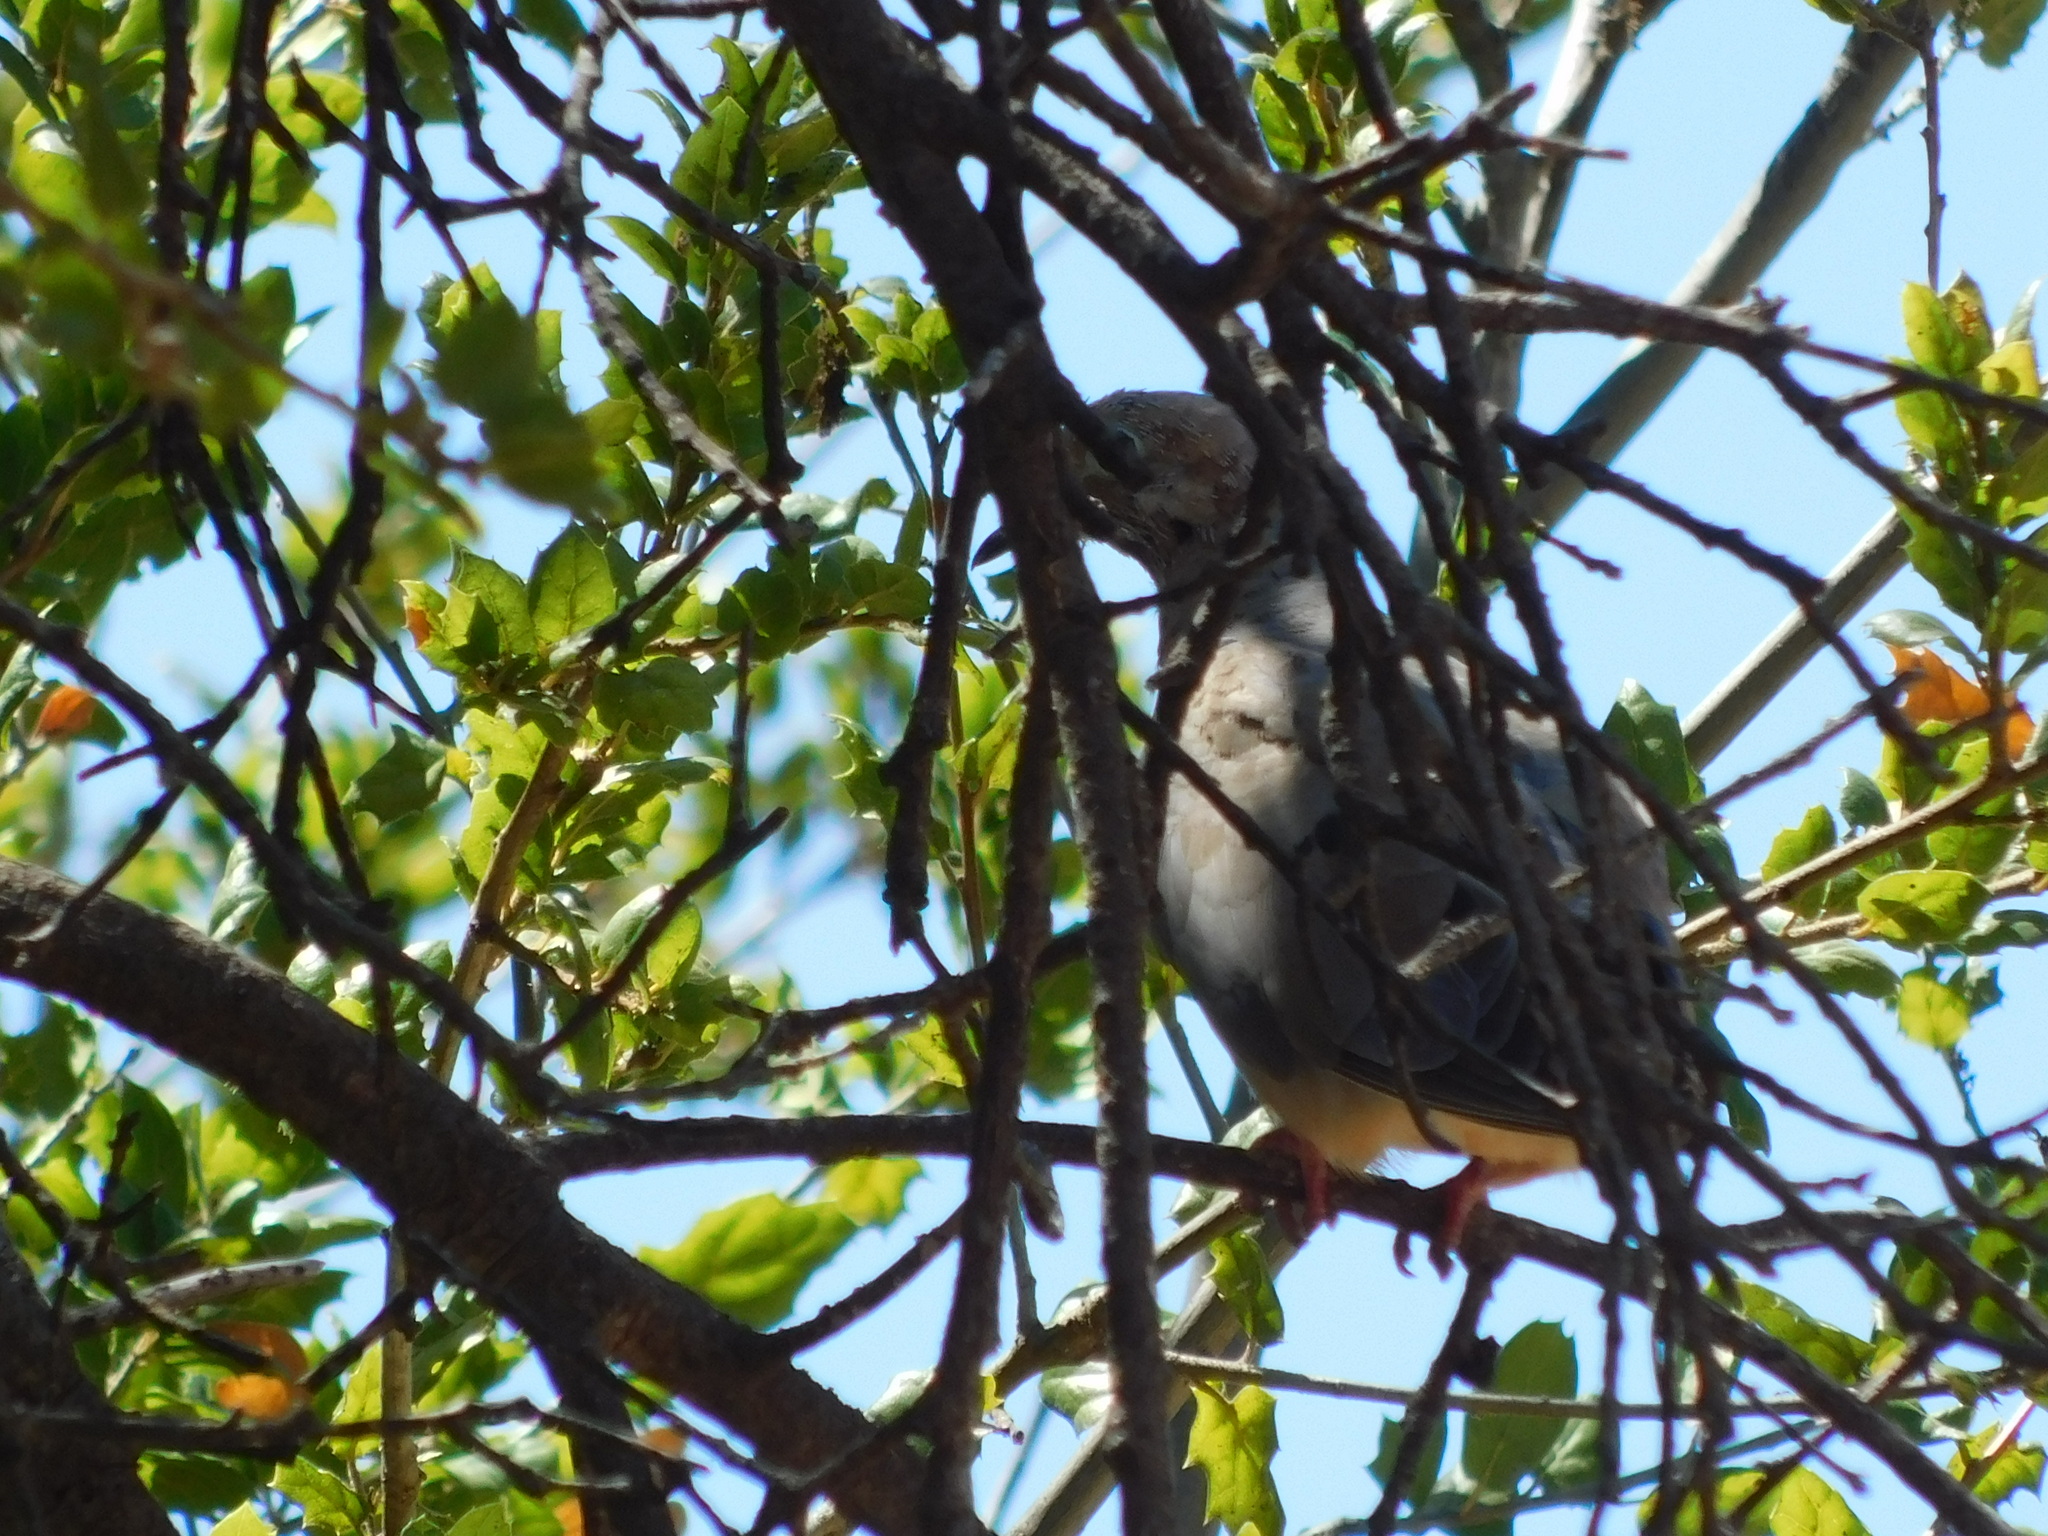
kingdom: Animalia
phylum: Chordata
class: Aves
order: Columbiformes
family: Columbidae
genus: Zenaida
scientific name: Zenaida macroura
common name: Mourning dove
